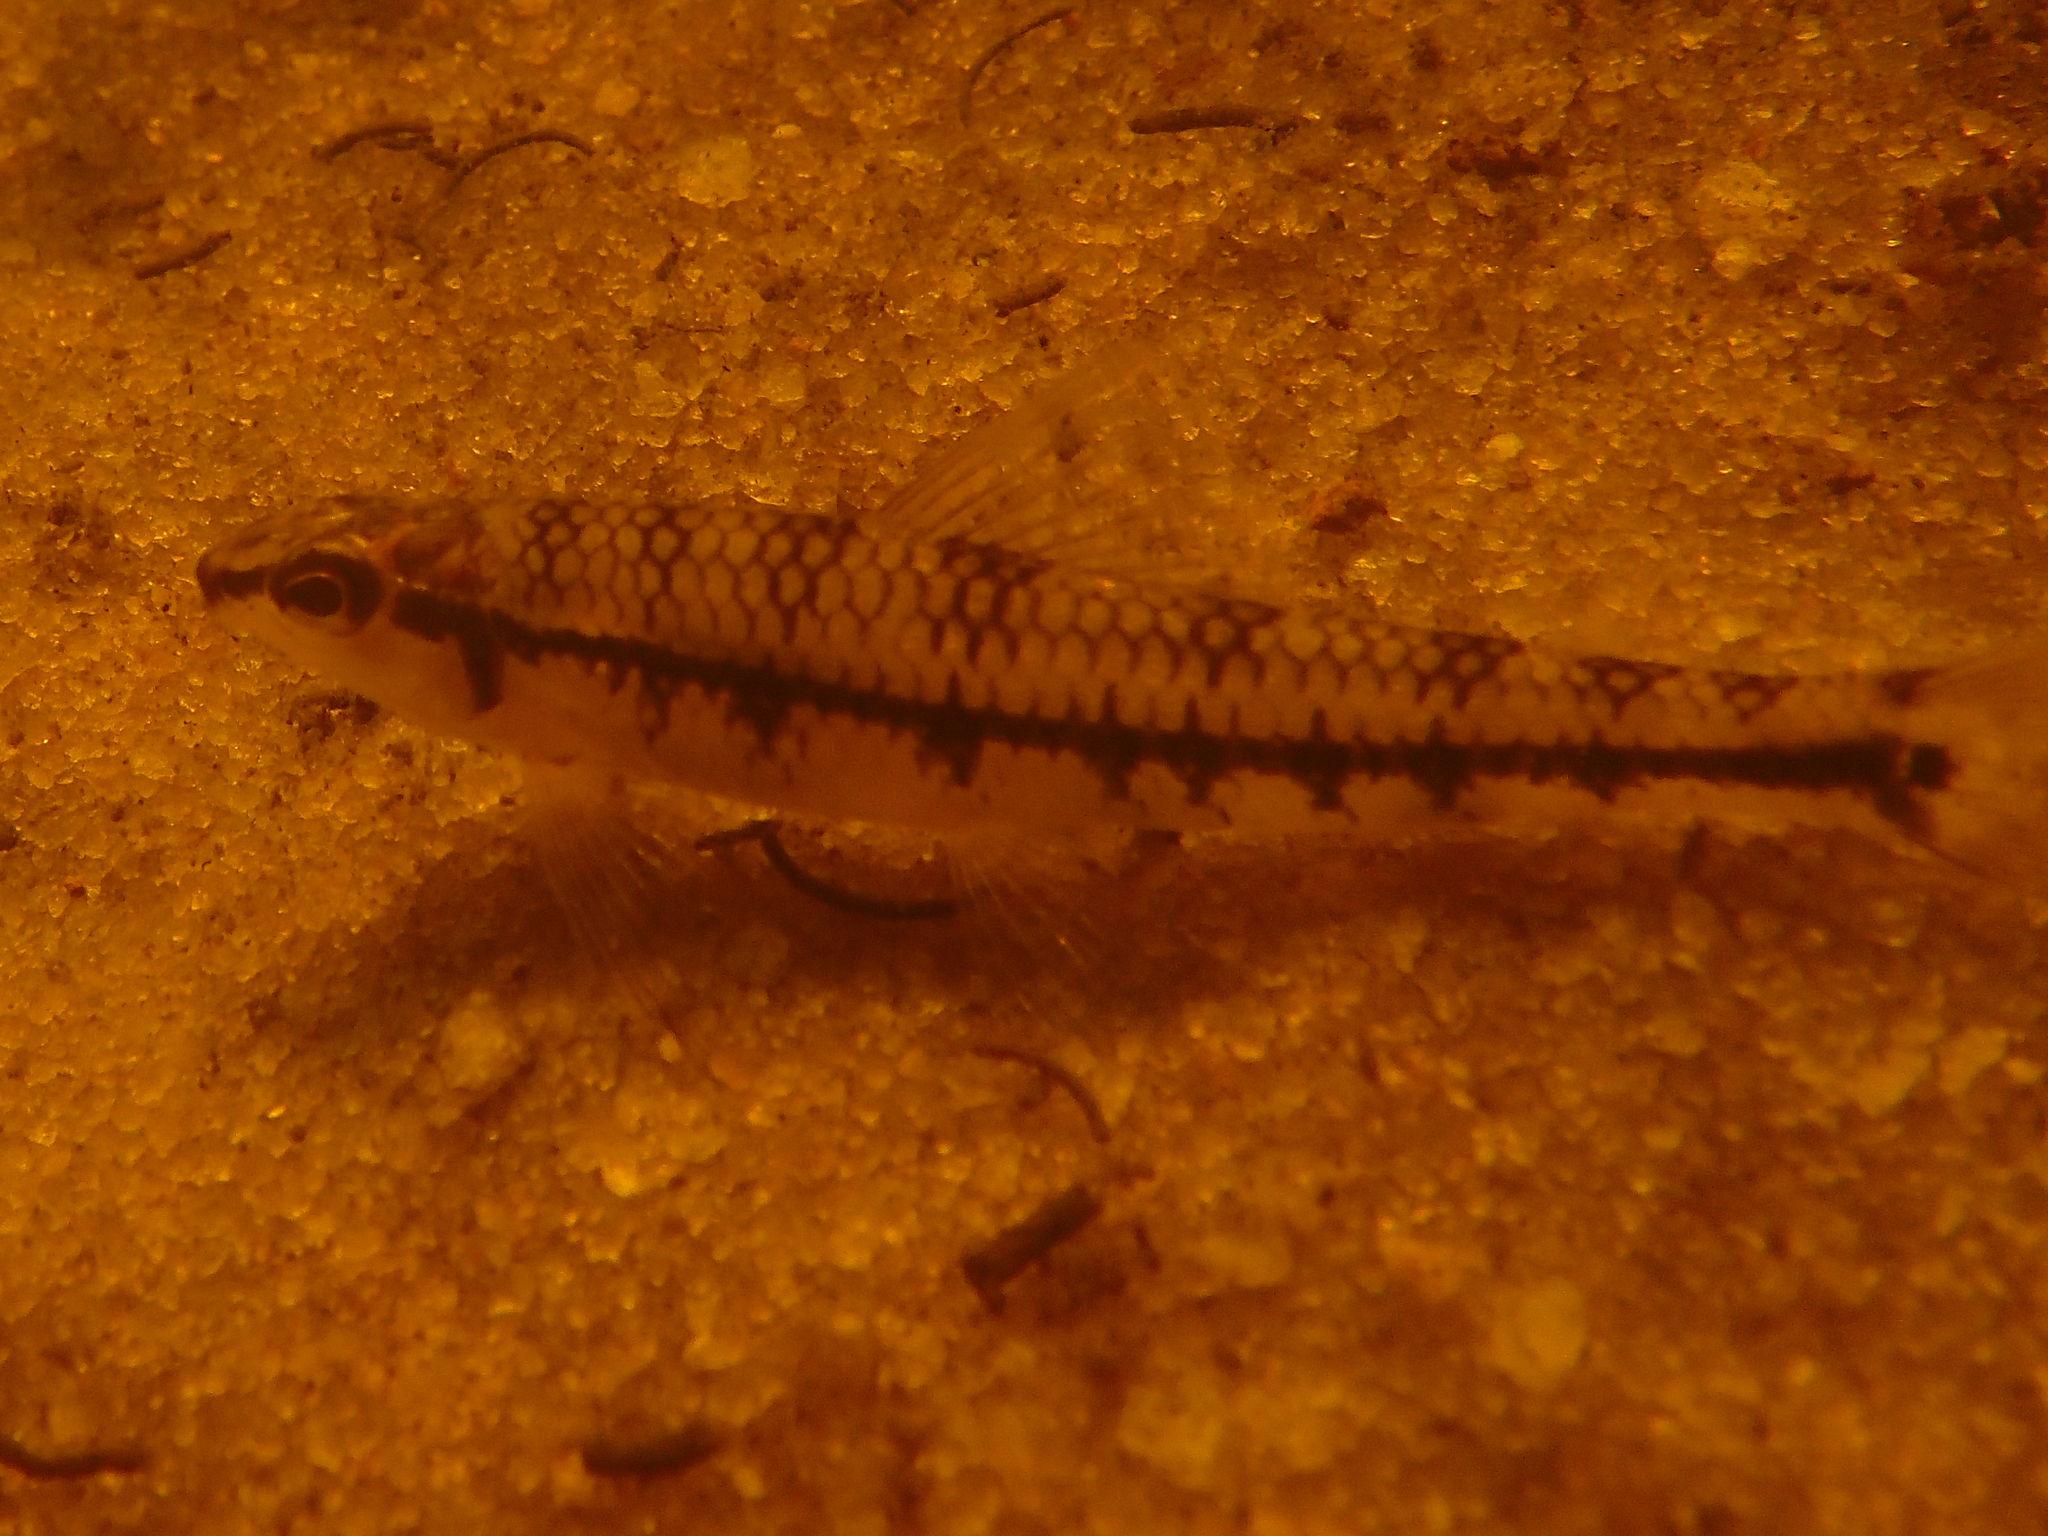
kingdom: Animalia
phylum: Chordata
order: Characiformes
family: Crenuchidae
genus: Characidium
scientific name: Characidium zebra
